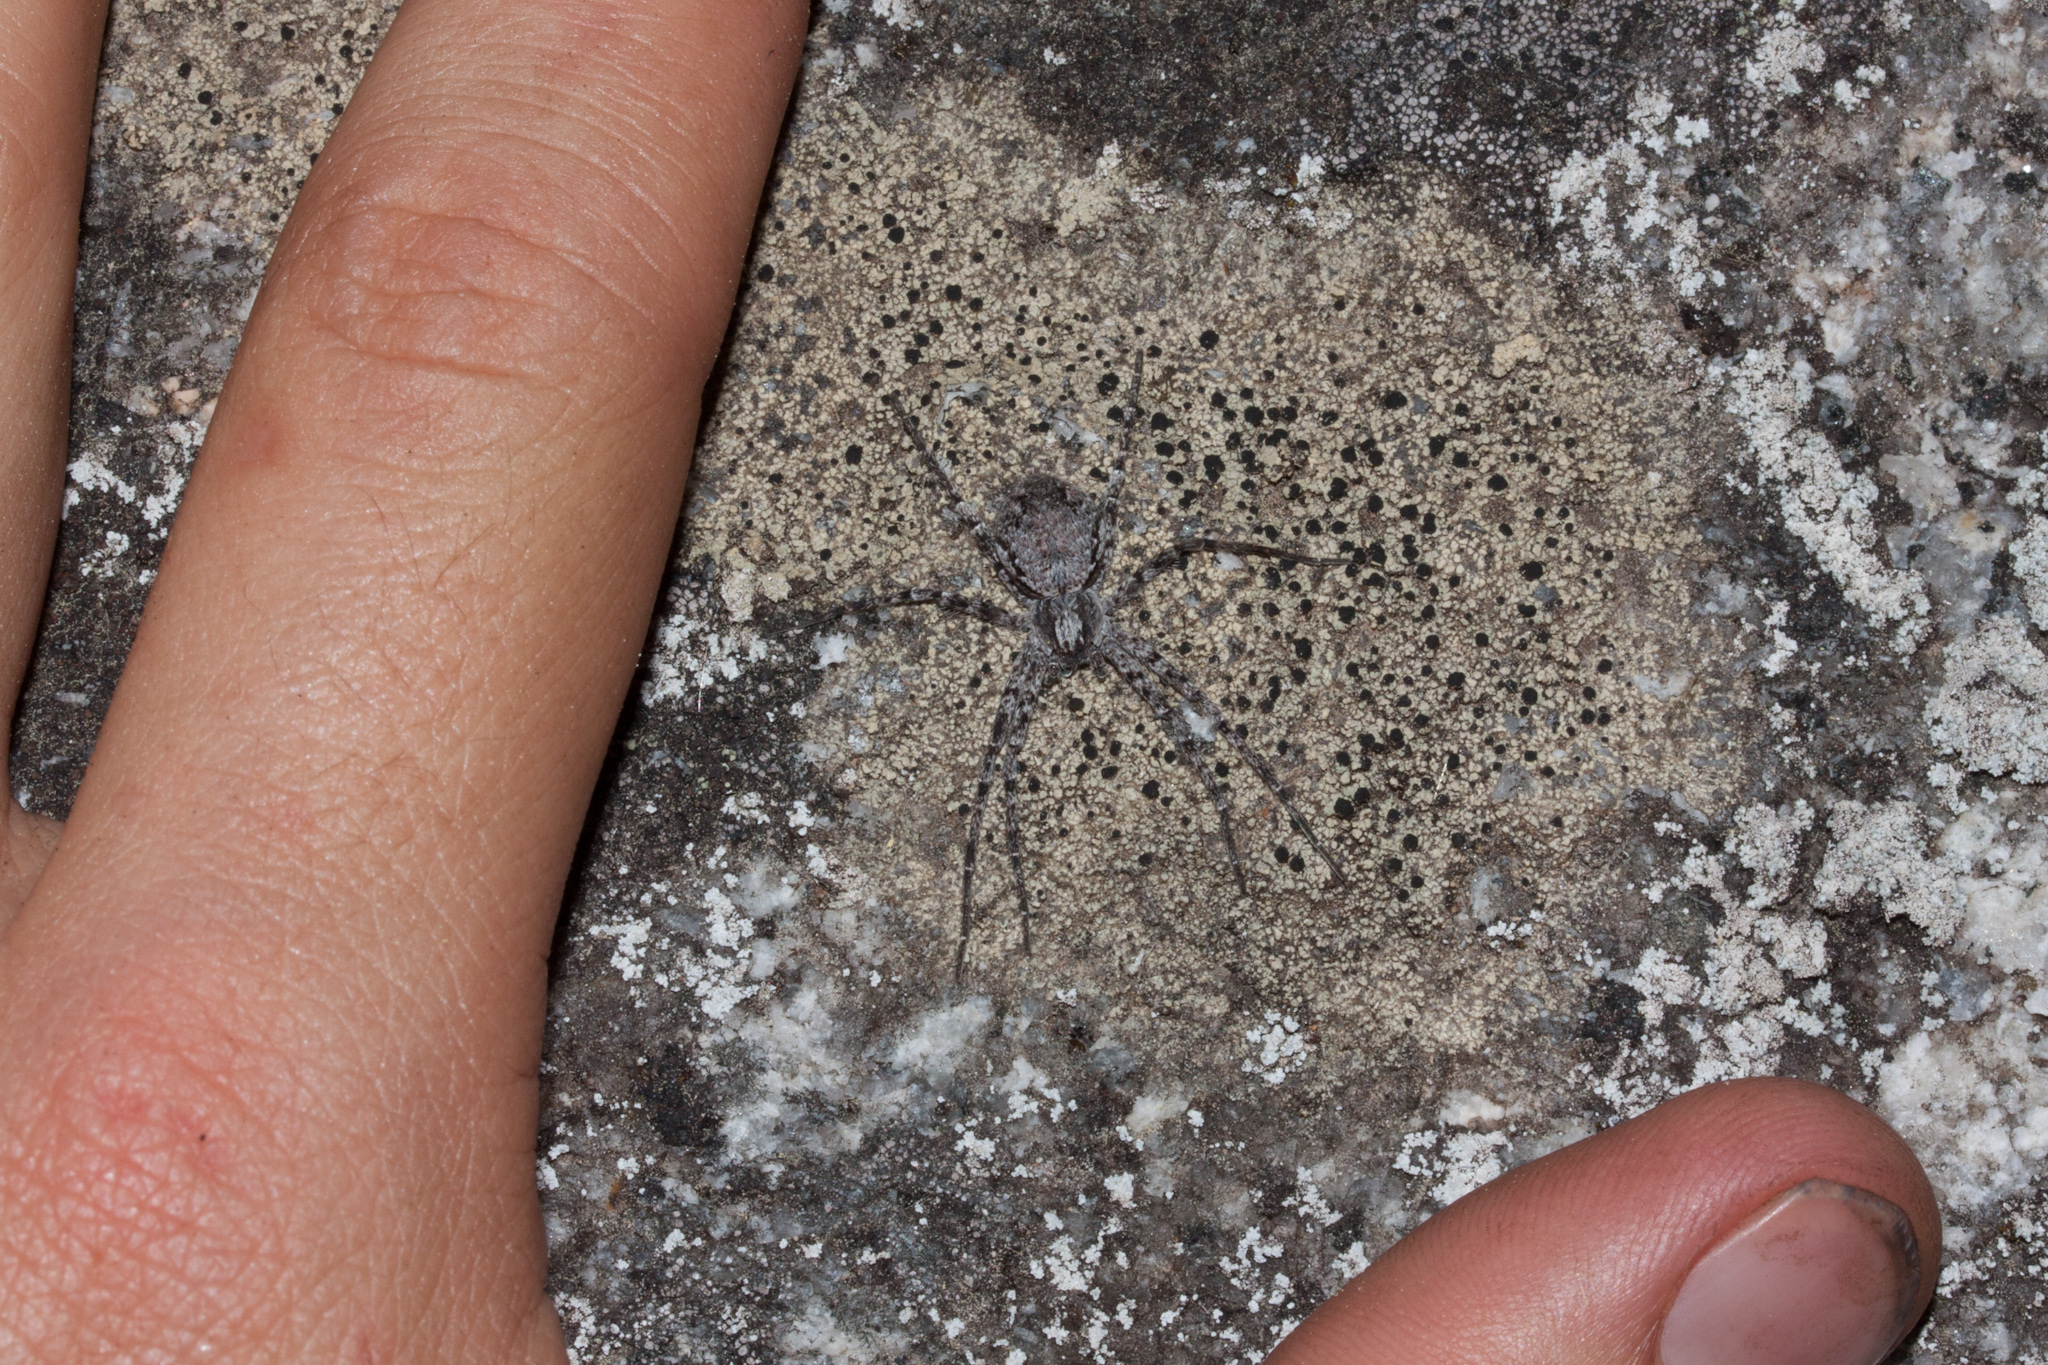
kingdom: Animalia
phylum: Arthropoda
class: Arachnida
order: Araneae
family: Philodromidae
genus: Philodromus
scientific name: Philodromus
